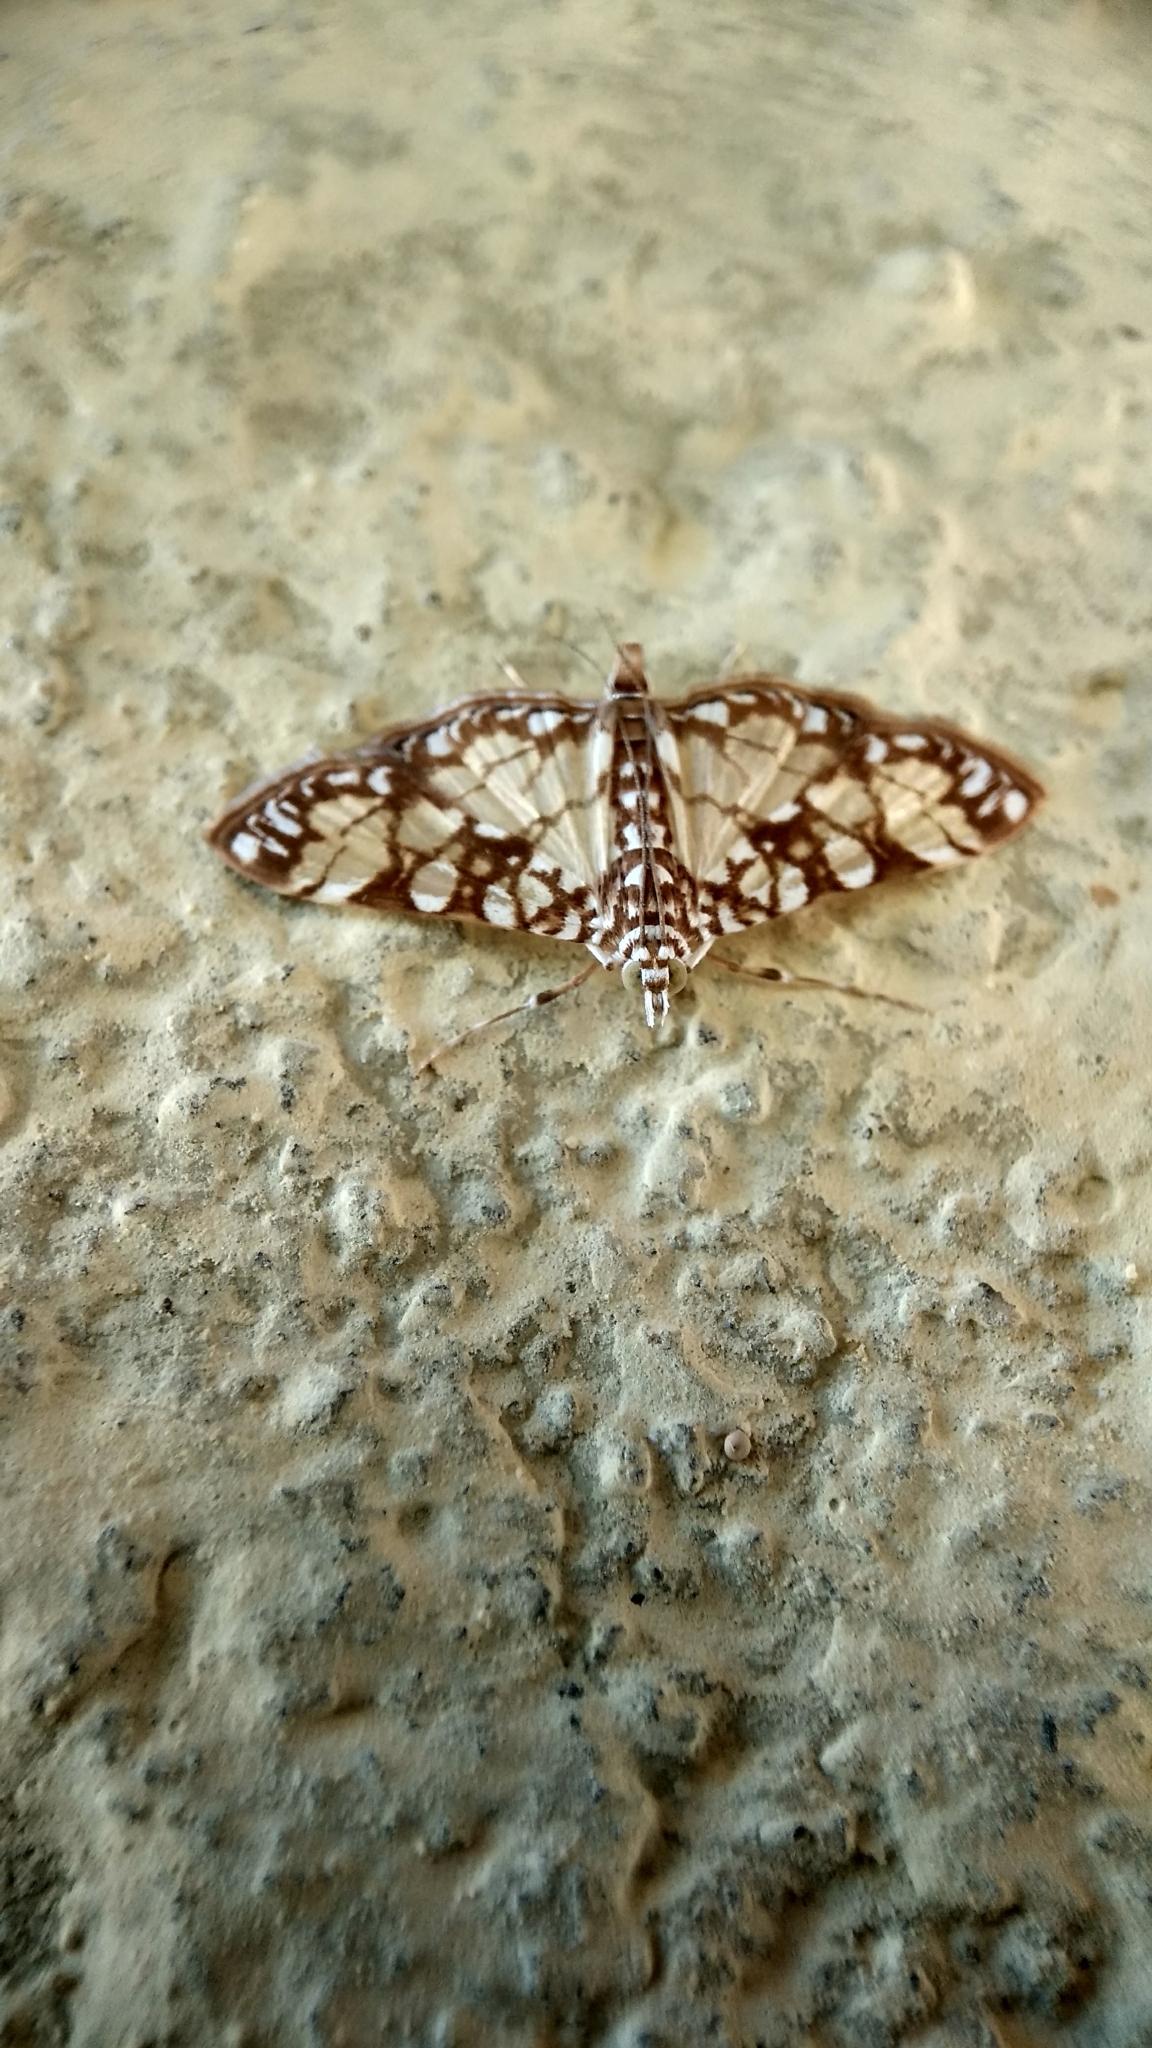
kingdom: Animalia
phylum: Arthropoda
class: Insecta
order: Lepidoptera
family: Crambidae
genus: Synclera
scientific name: Synclera univocalis
